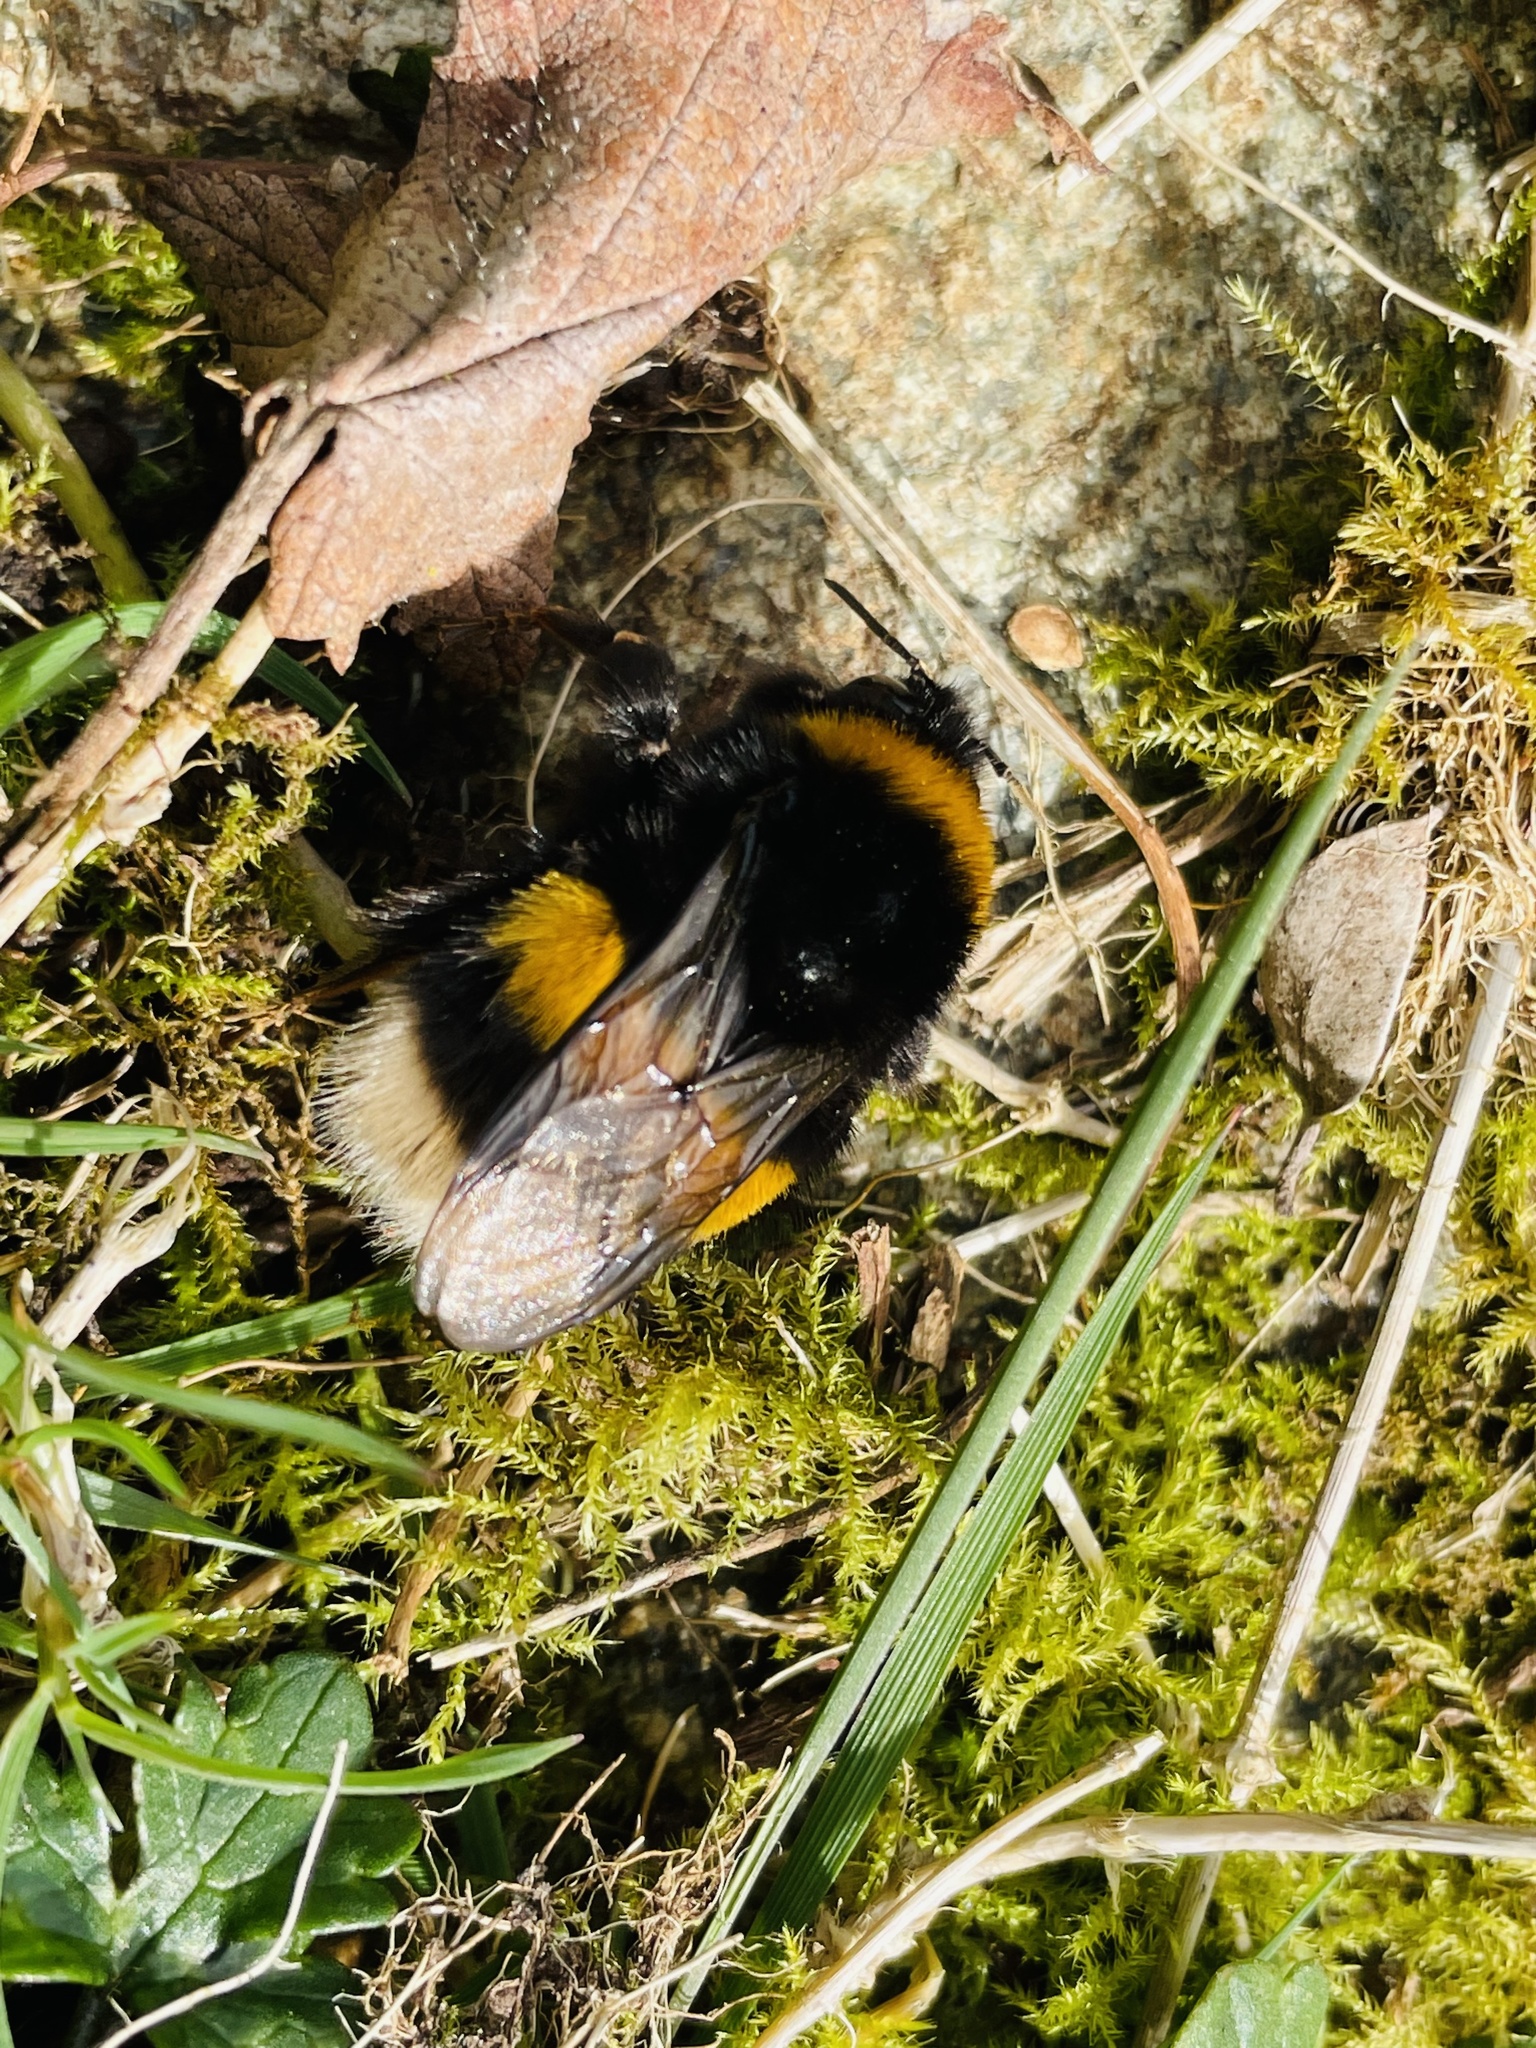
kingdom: Animalia
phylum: Arthropoda
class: Insecta
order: Hymenoptera
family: Apidae
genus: Bombus
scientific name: Bombus terrestris
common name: Buff-tailed bumblebee
